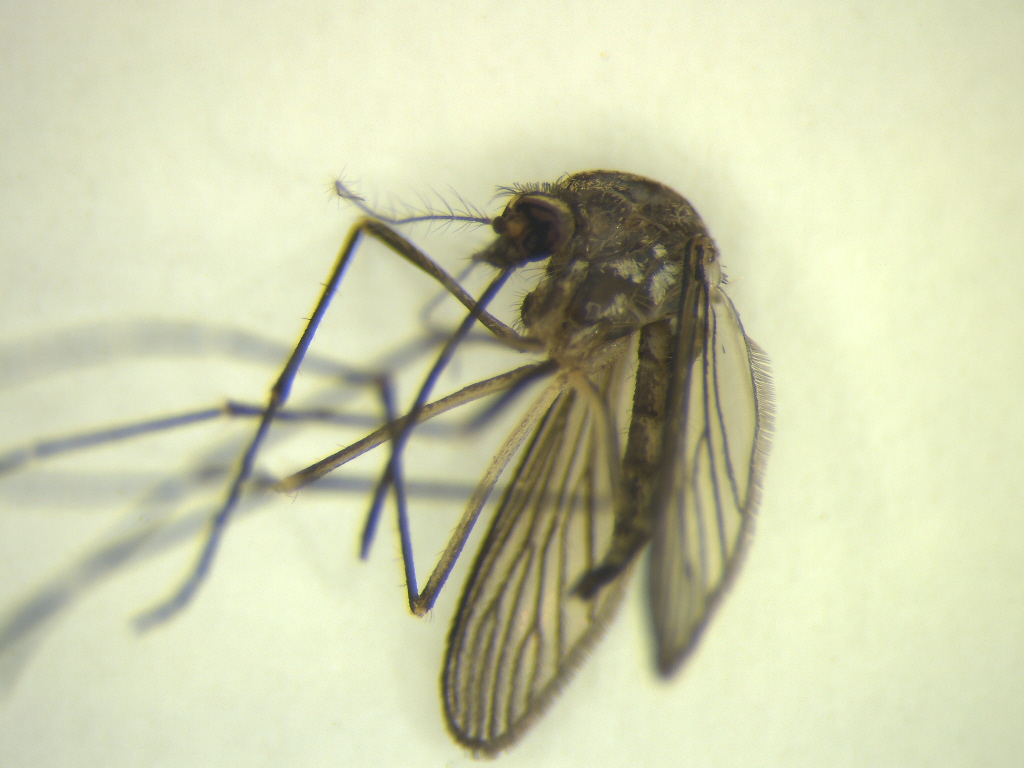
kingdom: Animalia
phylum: Arthropoda
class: Insecta
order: Diptera
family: Culicidae
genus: Aedes
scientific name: Aedes antipodeus
